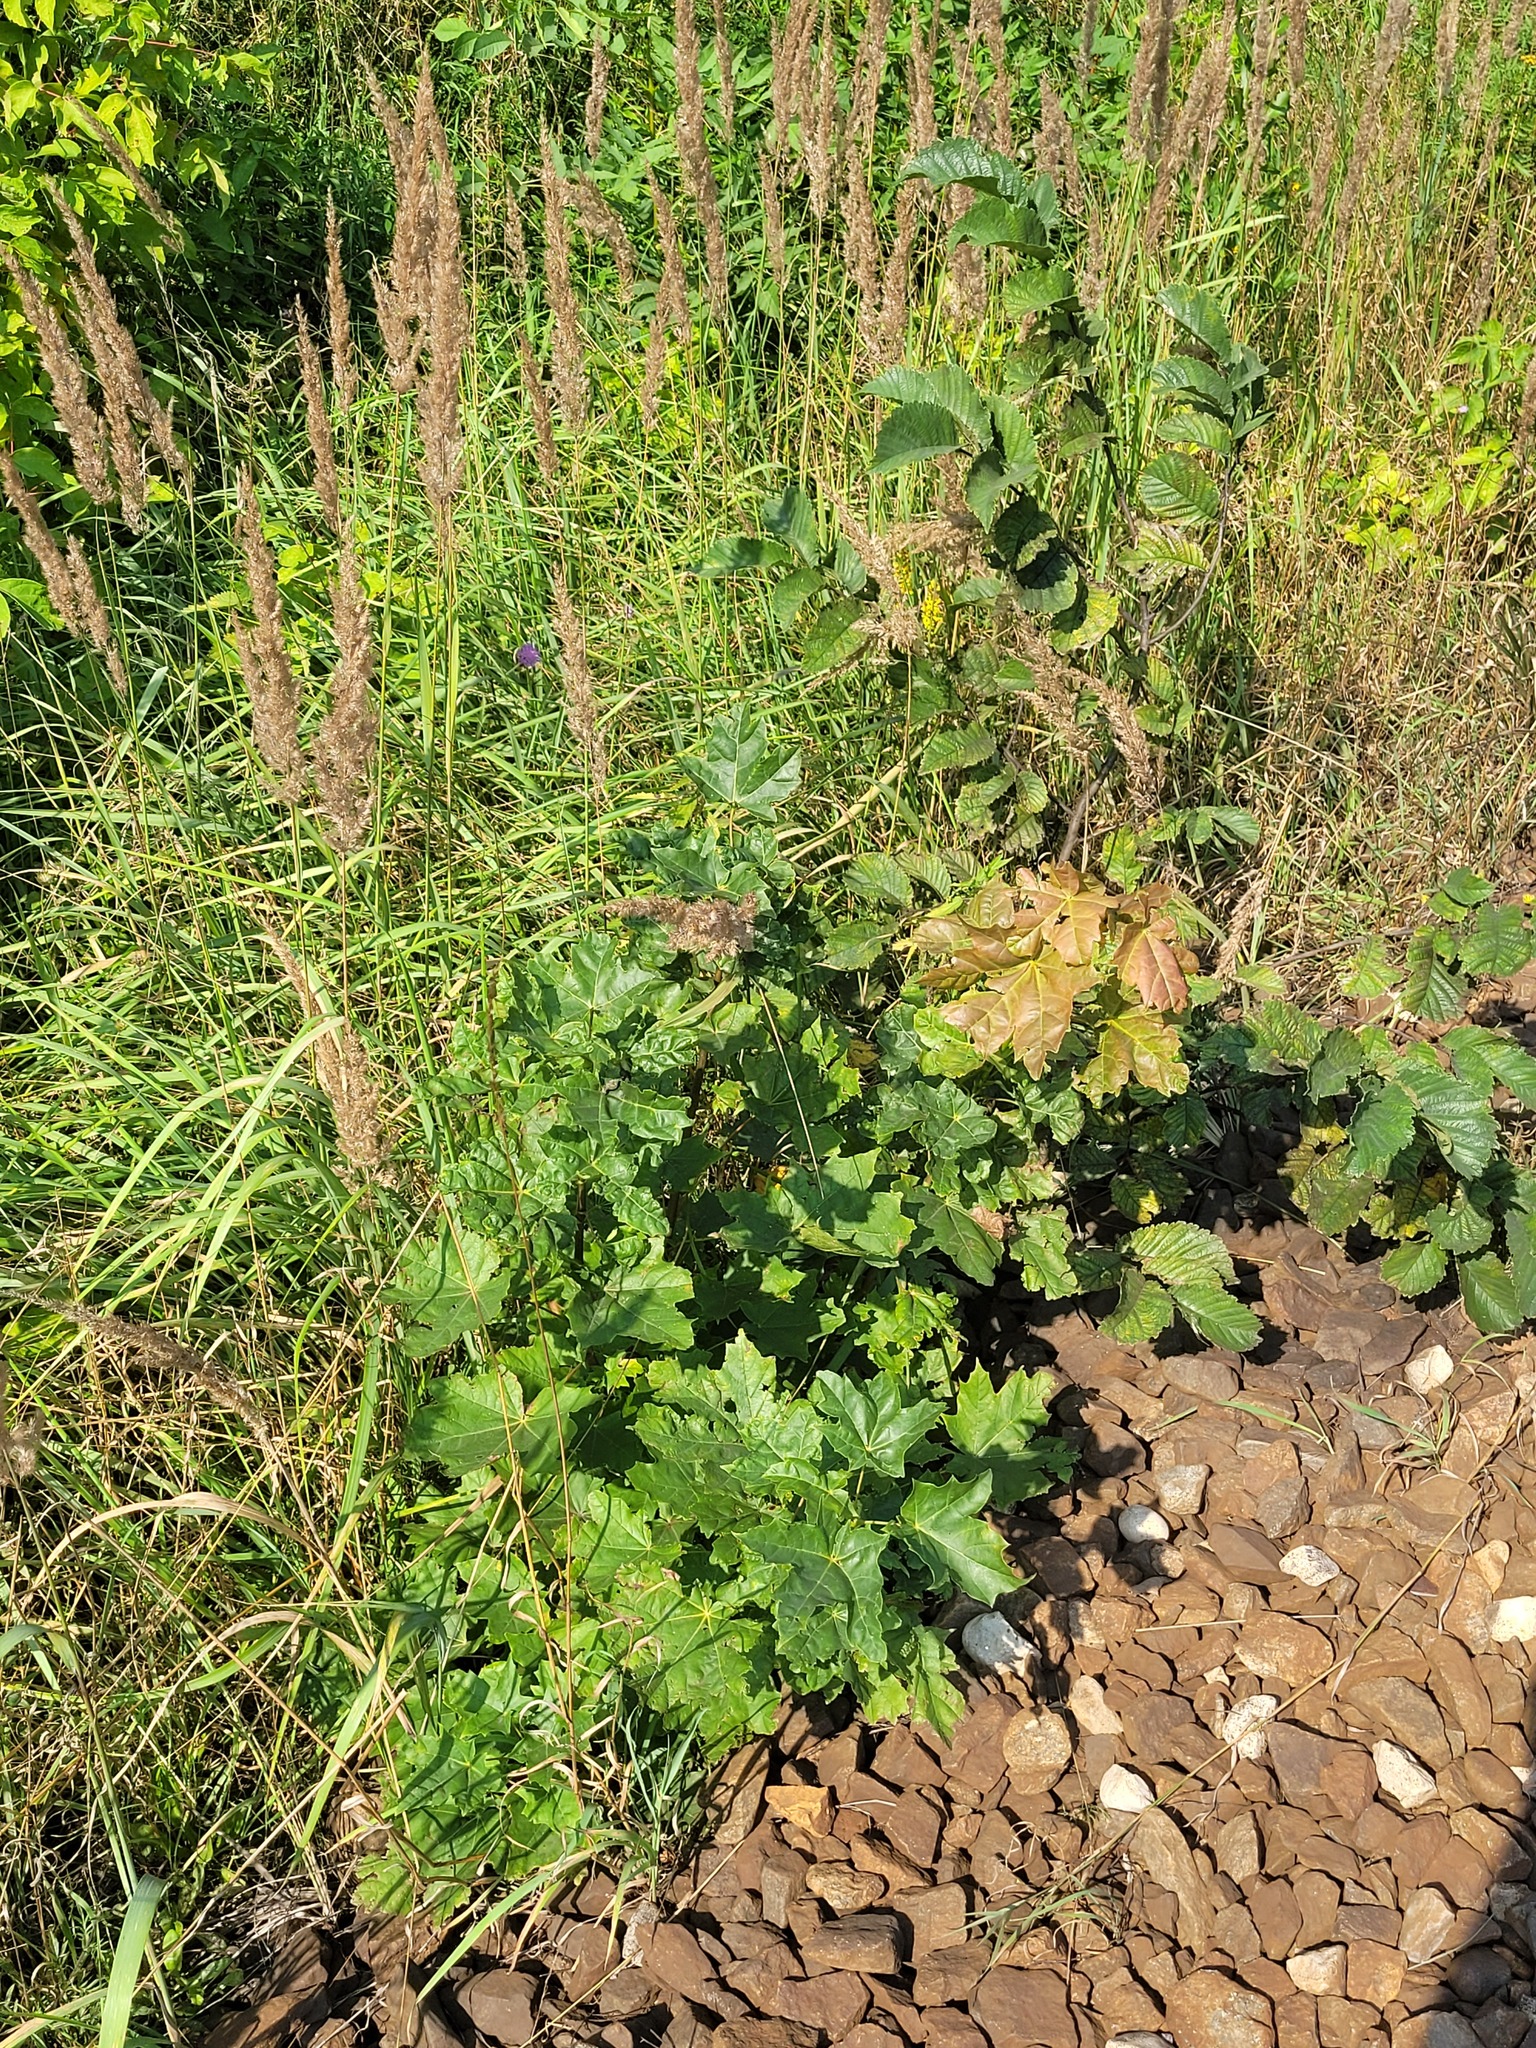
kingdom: Plantae
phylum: Tracheophyta
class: Magnoliopsida
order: Sapindales
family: Sapindaceae
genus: Acer
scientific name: Acer platanoides
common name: Norway maple
